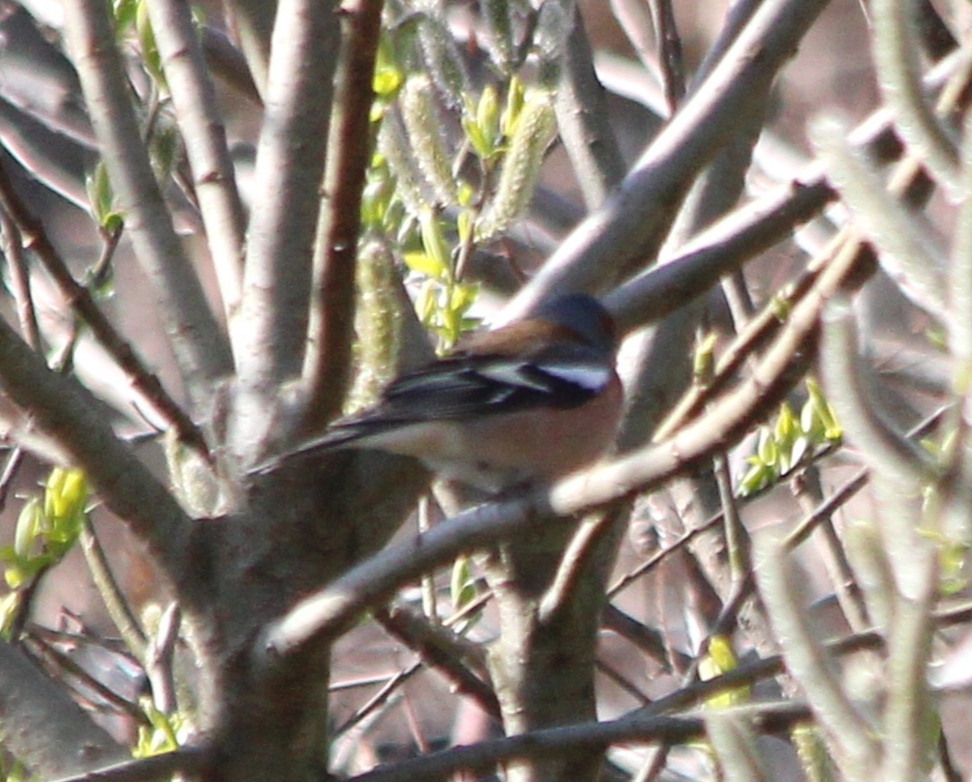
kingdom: Animalia
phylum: Chordata
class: Aves
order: Passeriformes
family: Fringillidae
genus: Fringilla
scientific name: Fringilla coelebs
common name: Common chaffinch
